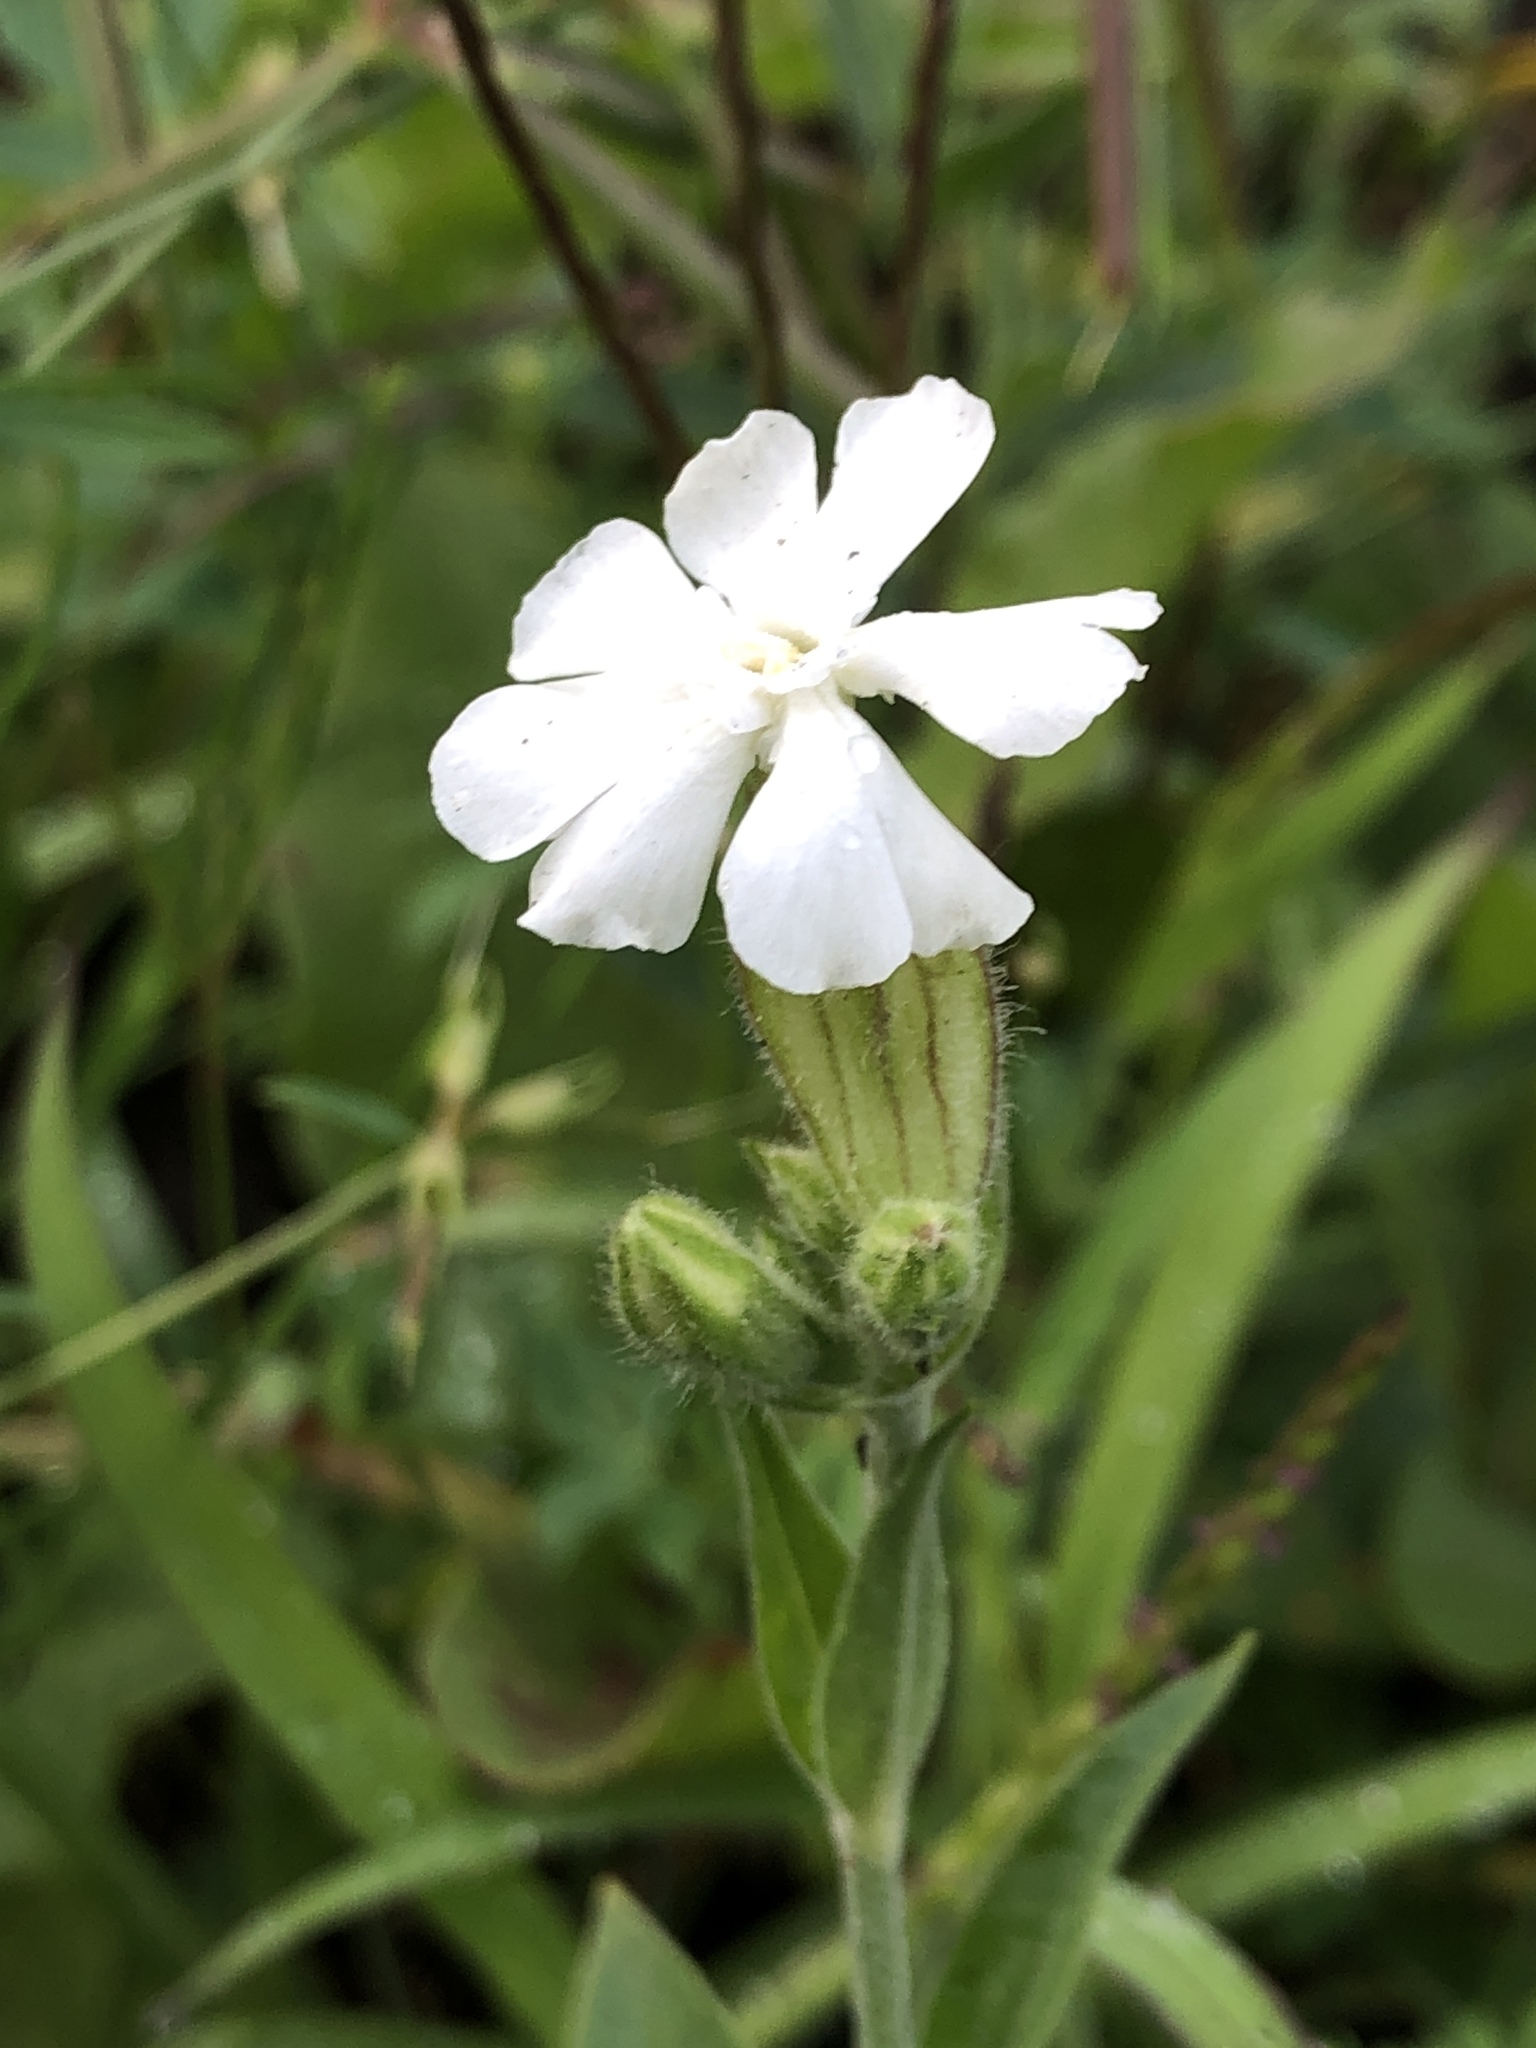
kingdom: Plantae
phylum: Tracheophyta
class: Magnoliopsida
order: Caryophyllales
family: Caryophyllaceae
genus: Silene
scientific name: Silene latifolia
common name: White campion
